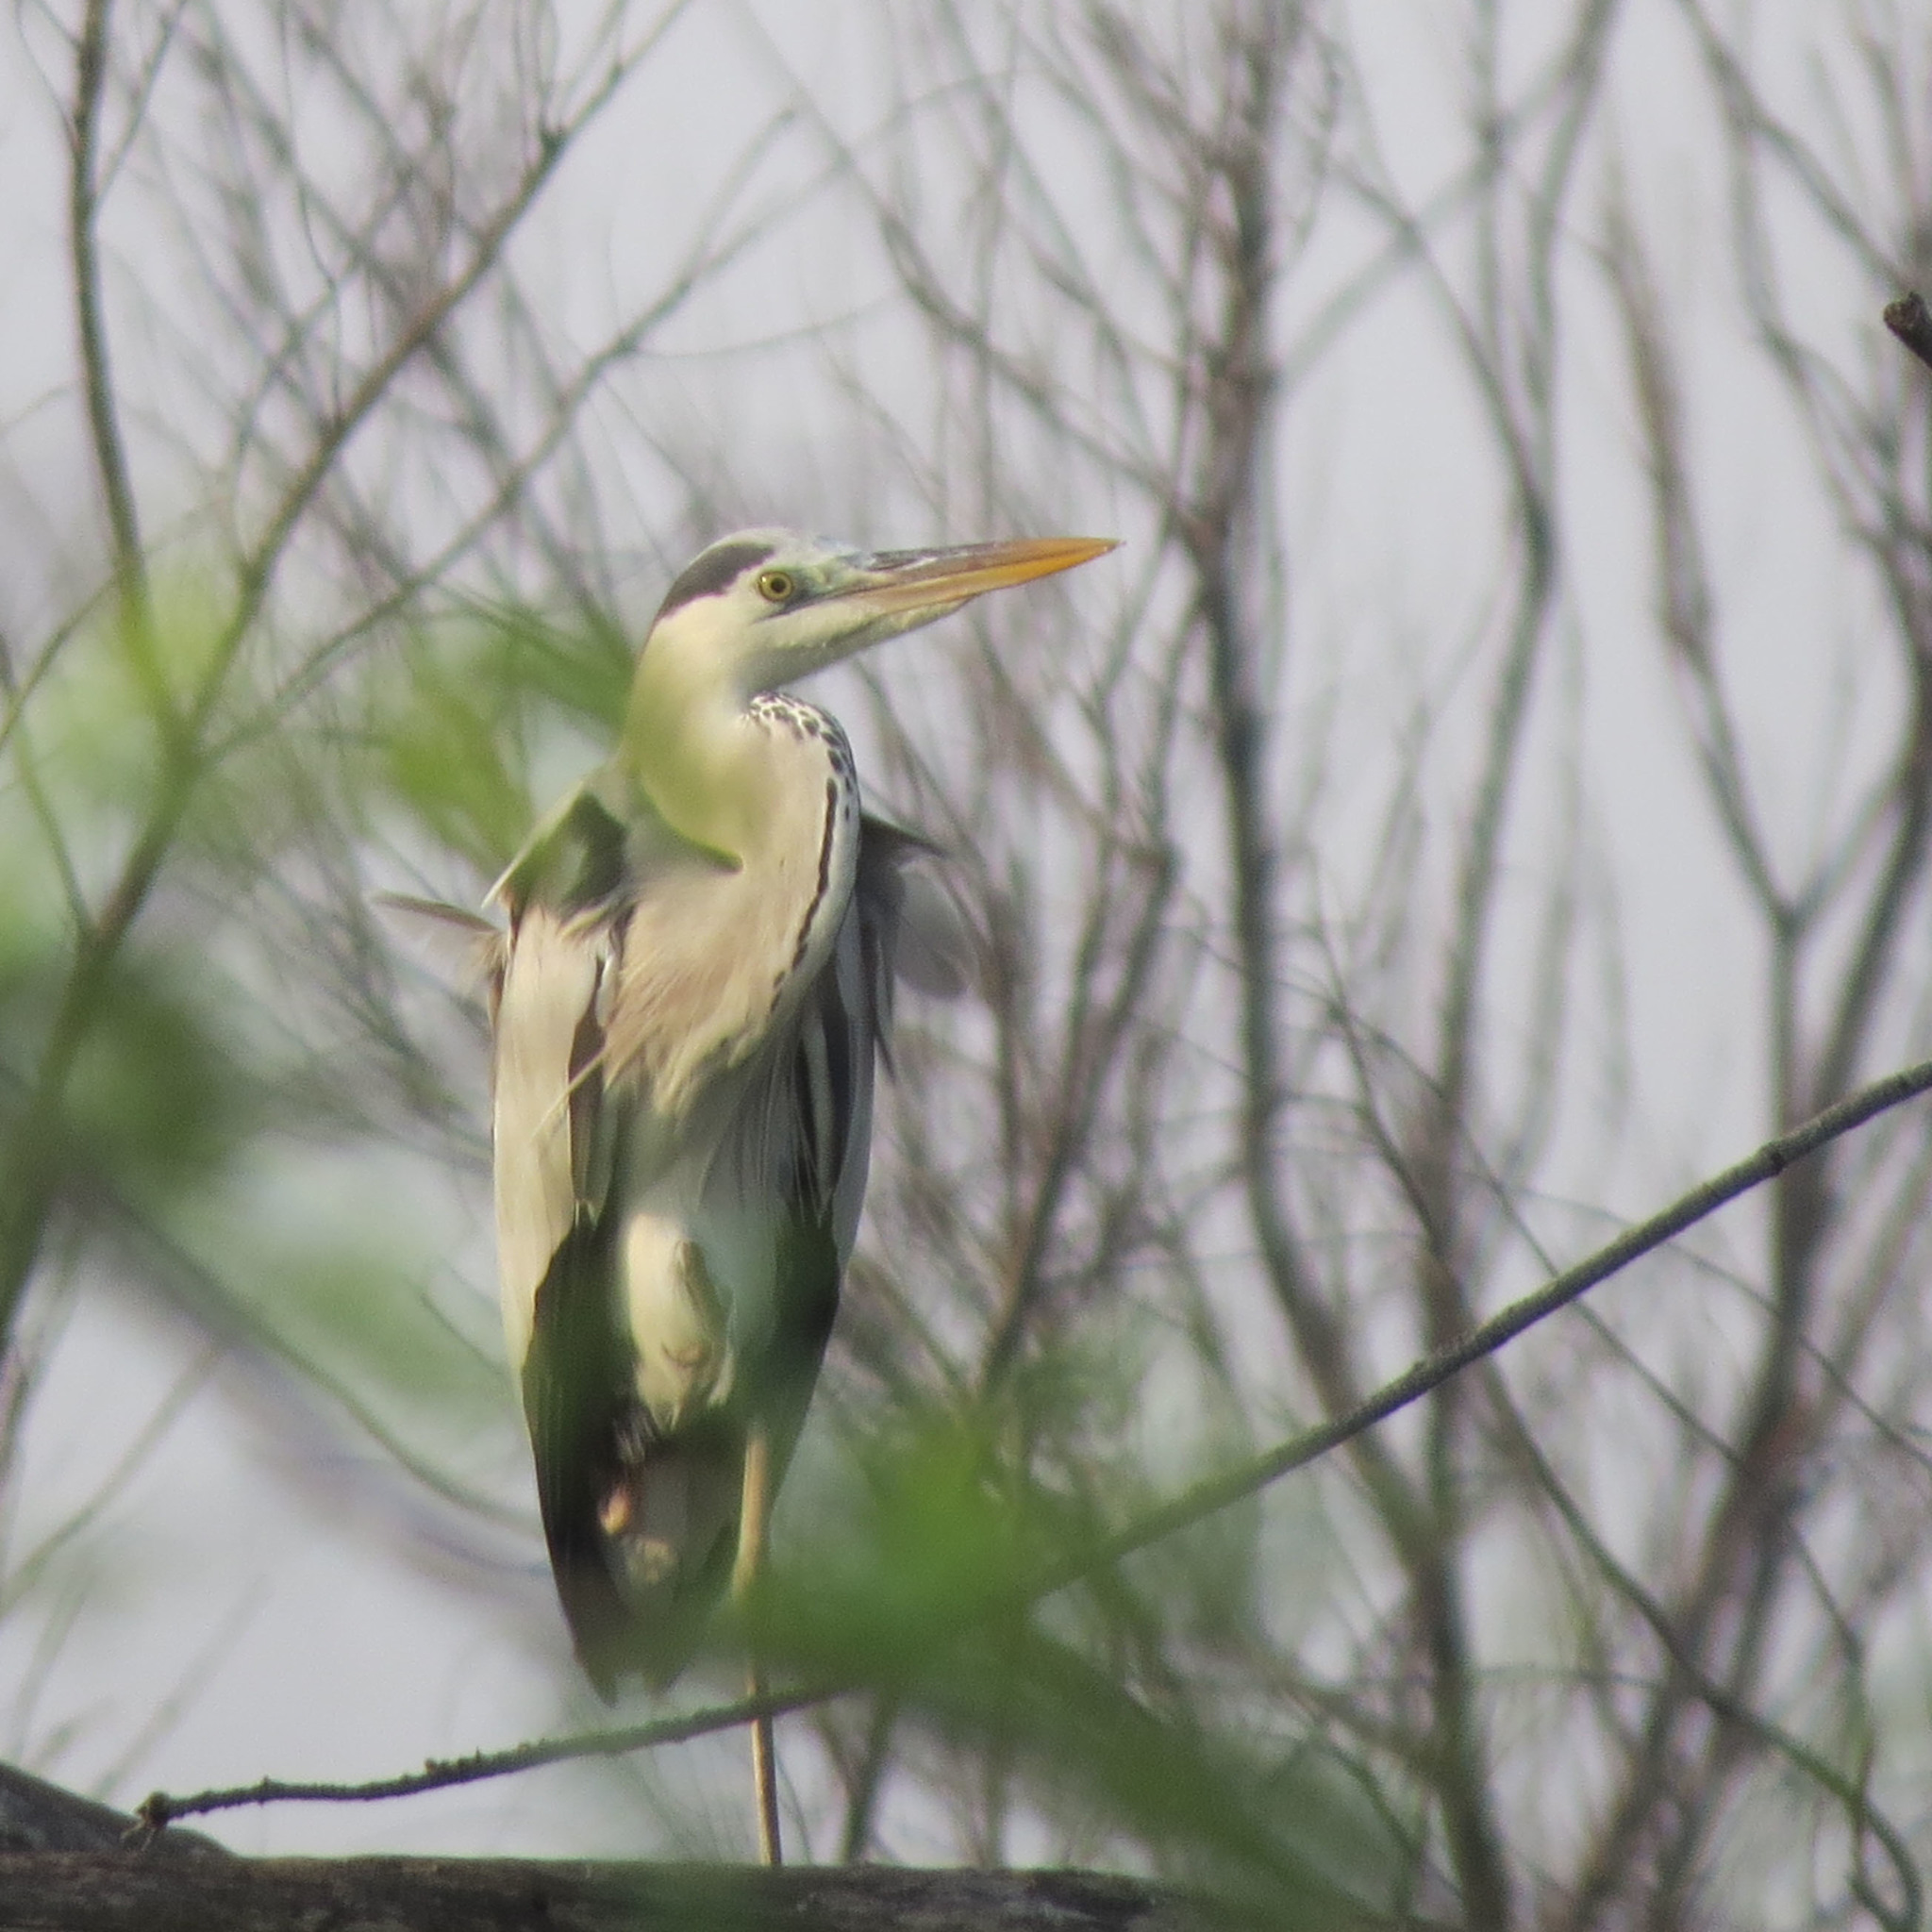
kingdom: Animalia
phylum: Chordata
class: Aves
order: Pelecaniformes
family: Ardeidae
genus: Ardea
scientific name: Ardea cinerea
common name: Grey heron
